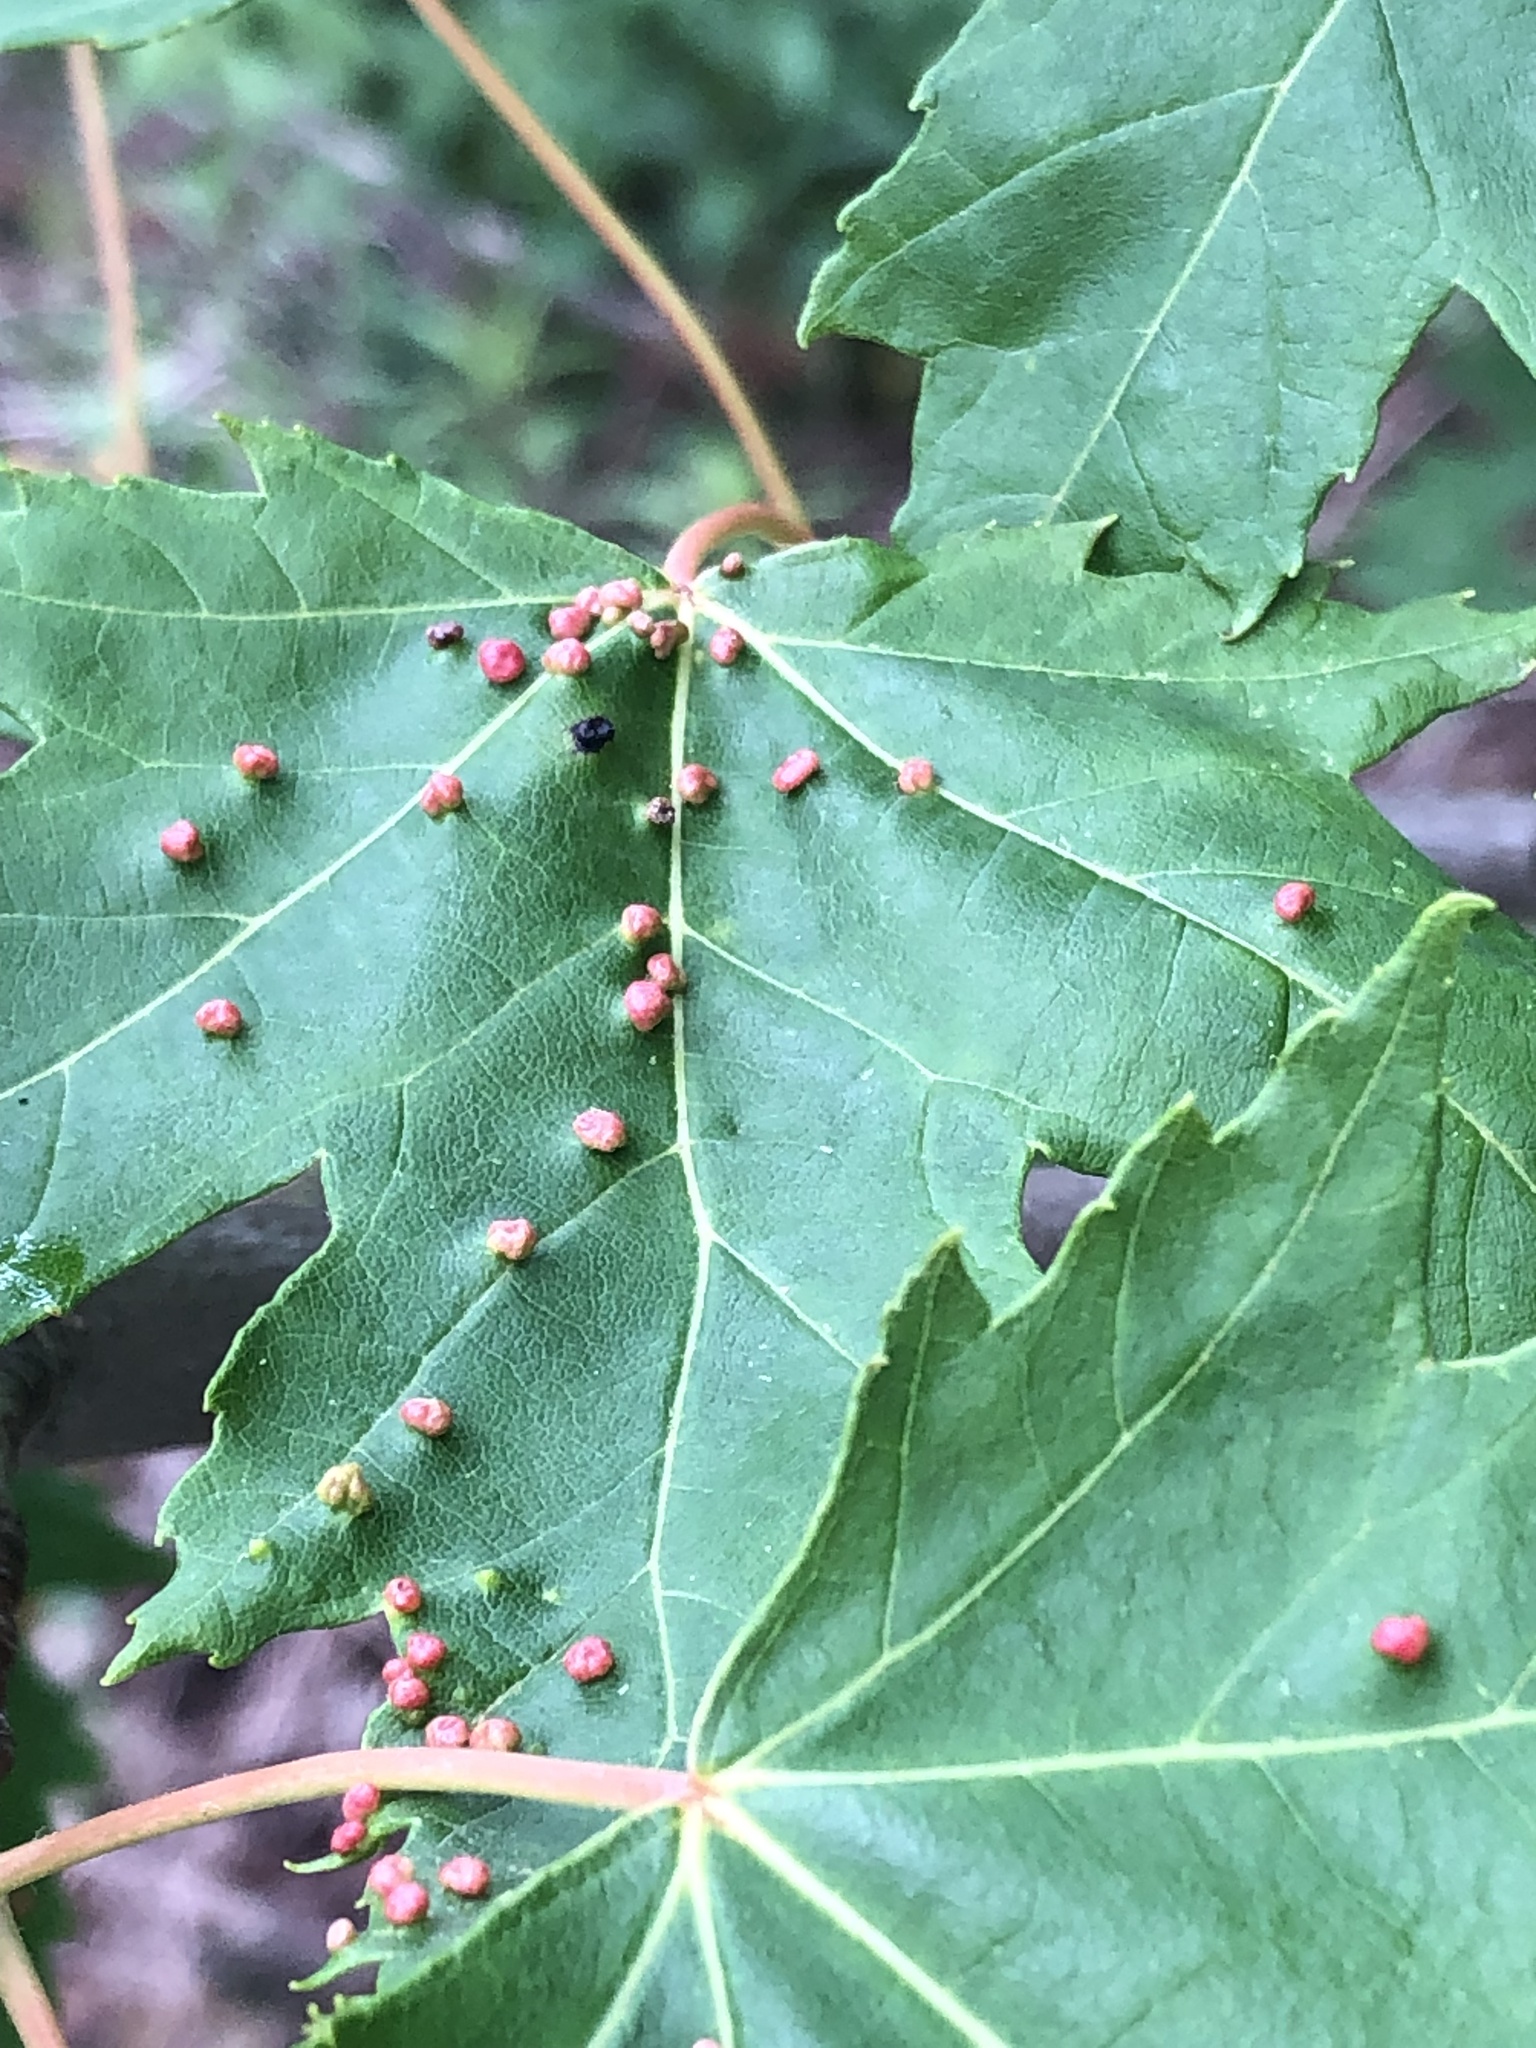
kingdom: Animalia
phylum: Arthropoda
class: Arachnida
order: Trombidiformes
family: Eriophyidae
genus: Vasates
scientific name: Vasates quadripedes
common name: Maple bladder gall mite
